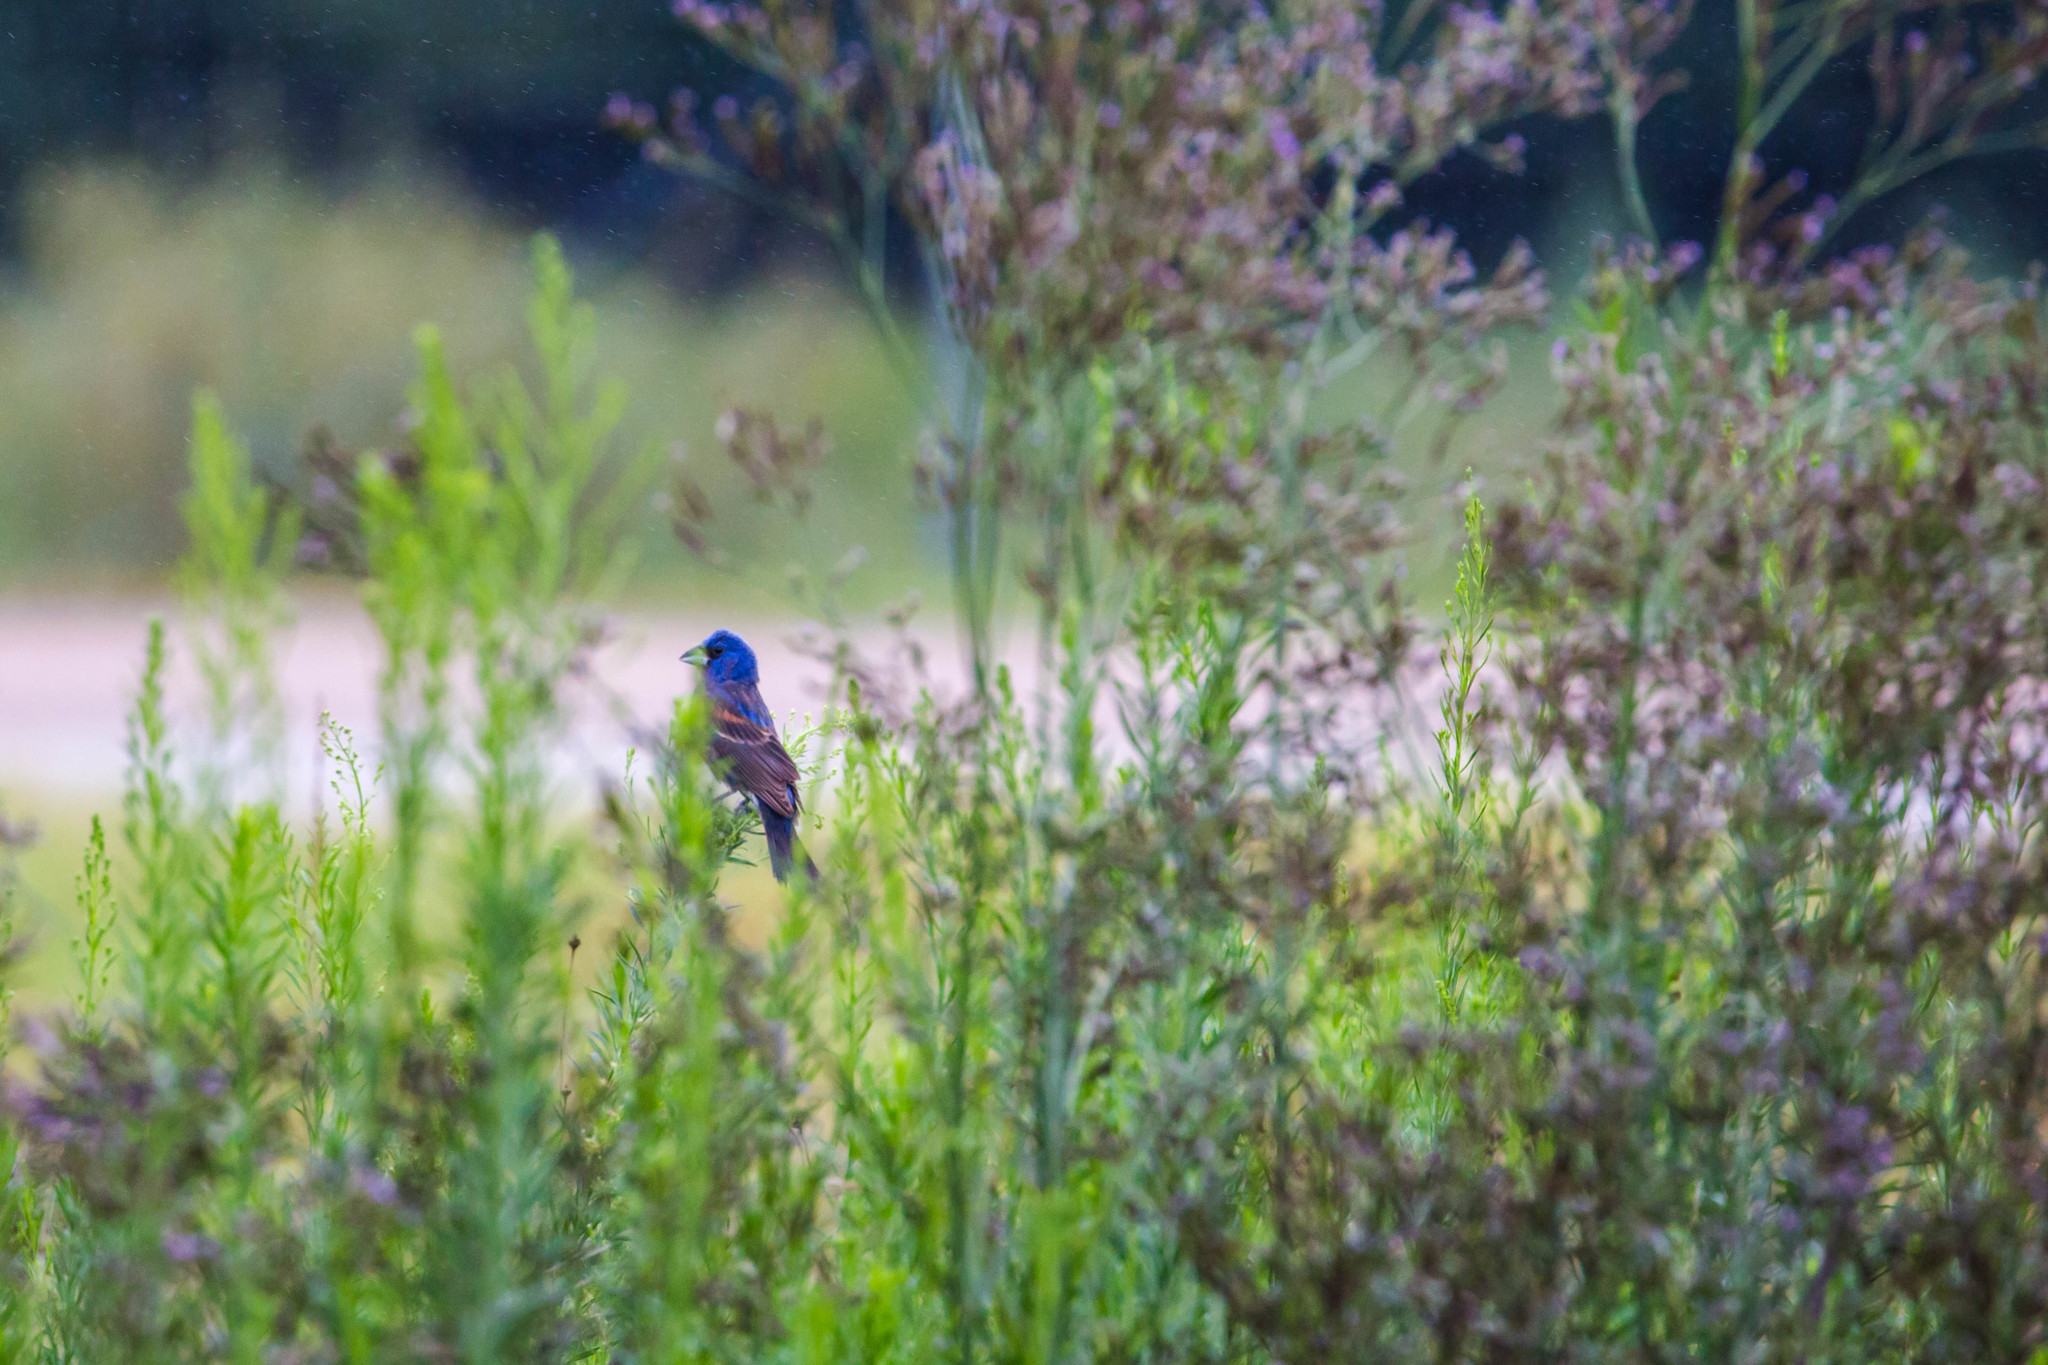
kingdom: Animalia
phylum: Chordata
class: Aves
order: Passeriformes
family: Cardinalidae
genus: Passerina
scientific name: Passerina caerulea
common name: Blue grosbeak
